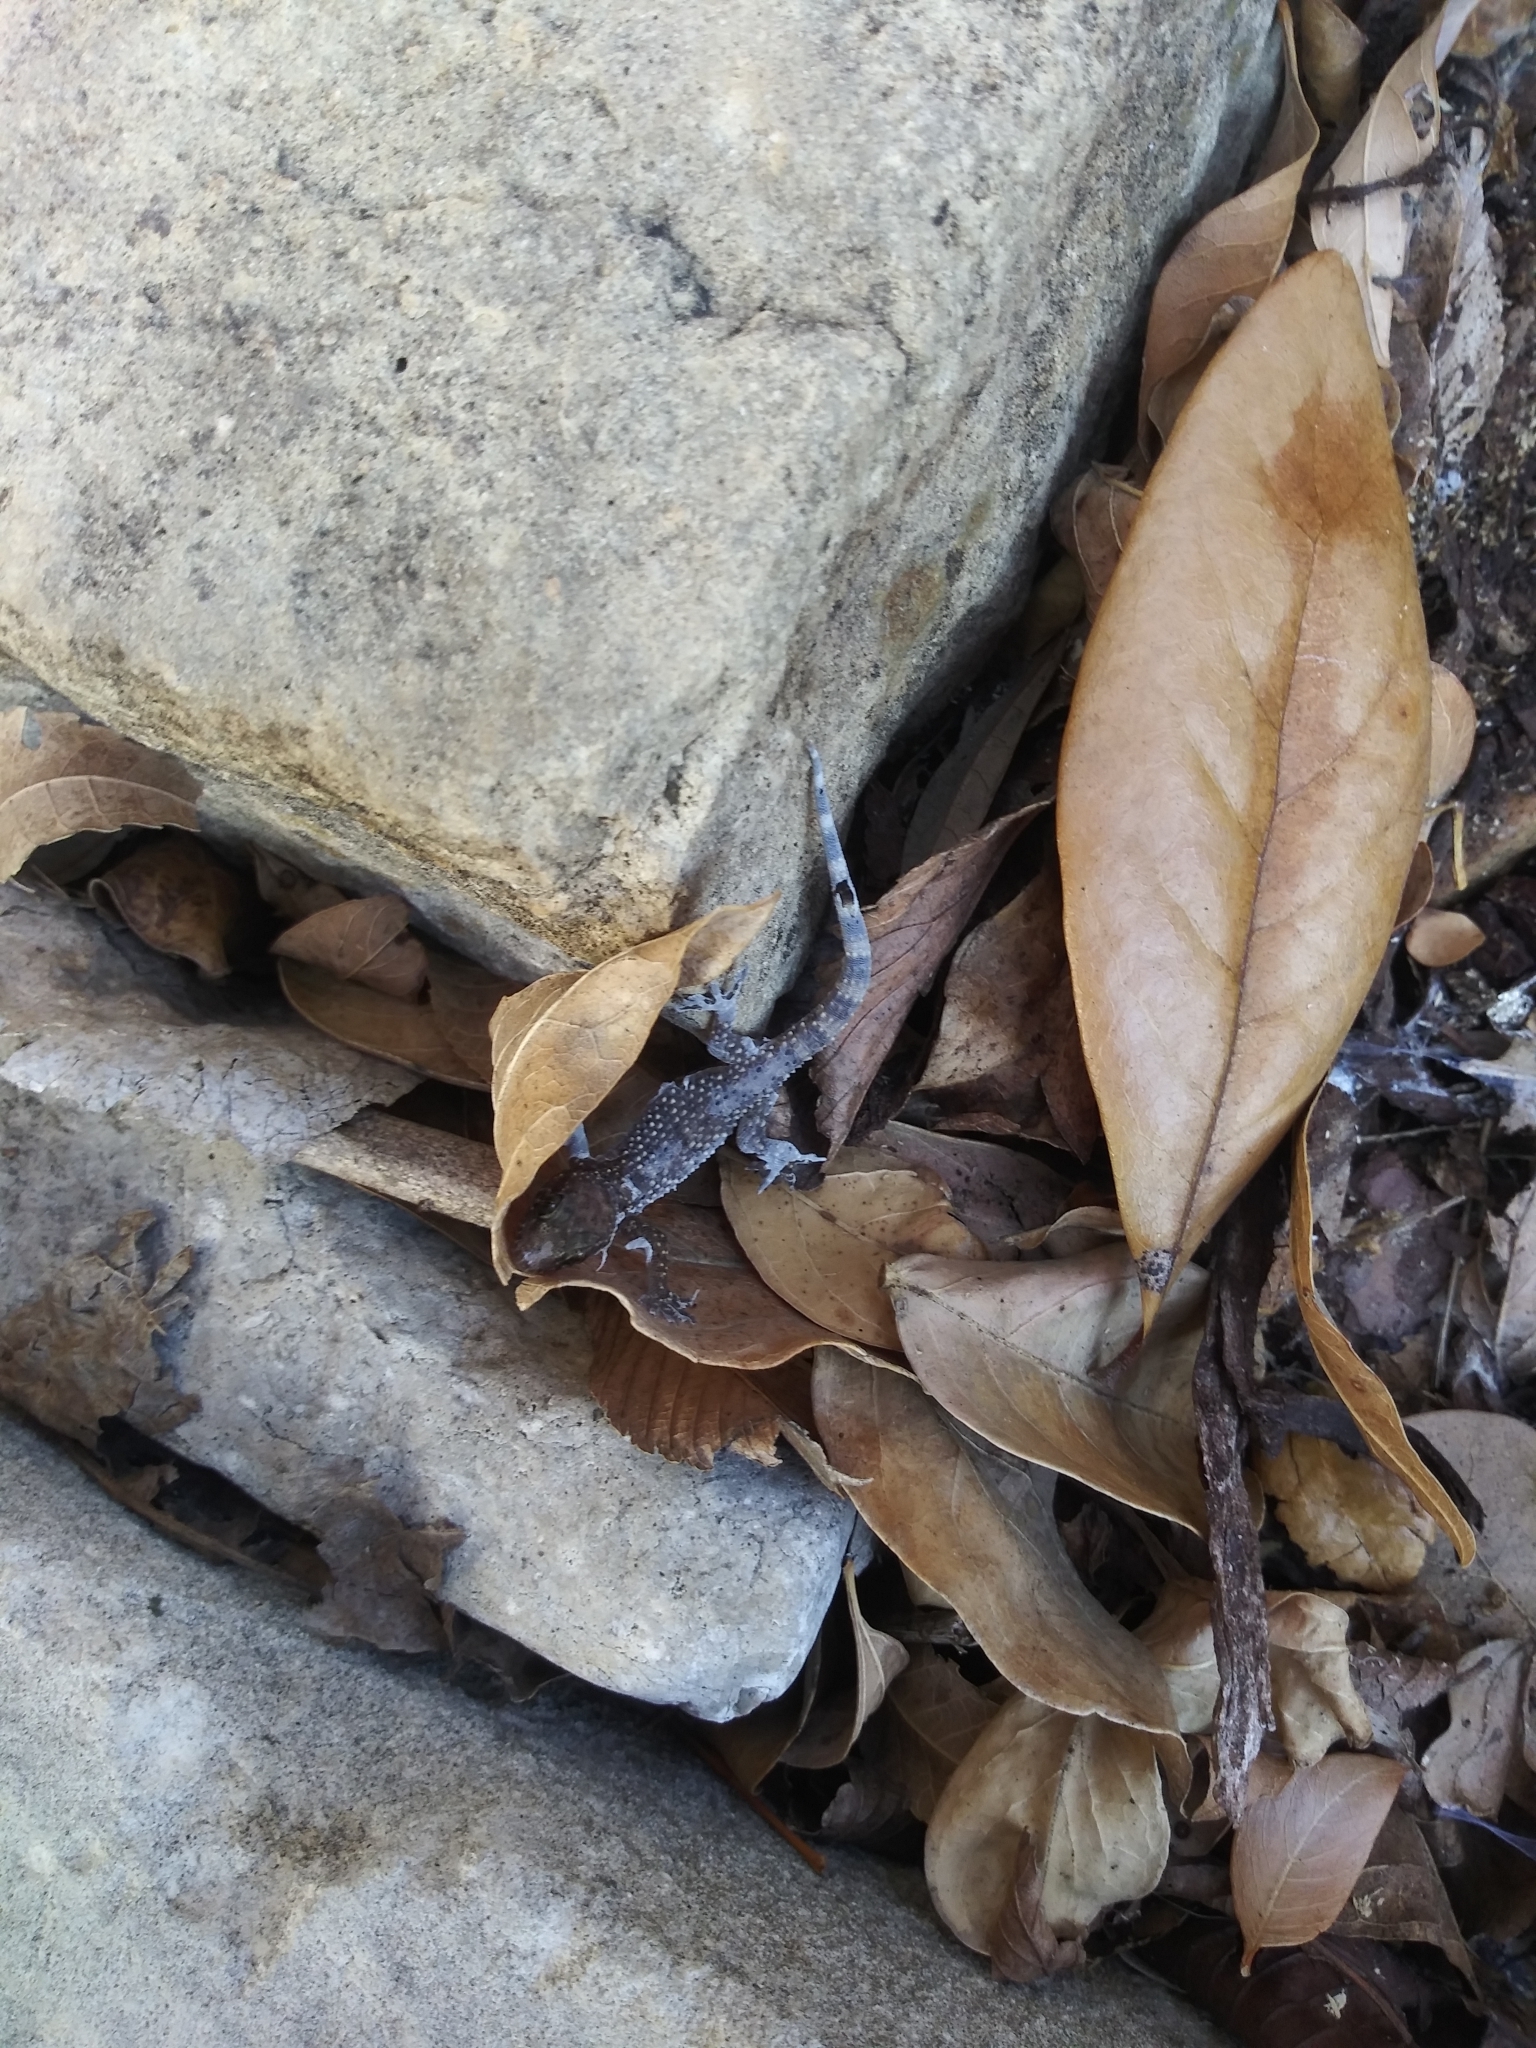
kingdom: Animalia
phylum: Chordata
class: Squamata
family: Gekkonidae
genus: Hemidactylus
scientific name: Hemidactylus turcicus
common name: Turkish gecko
